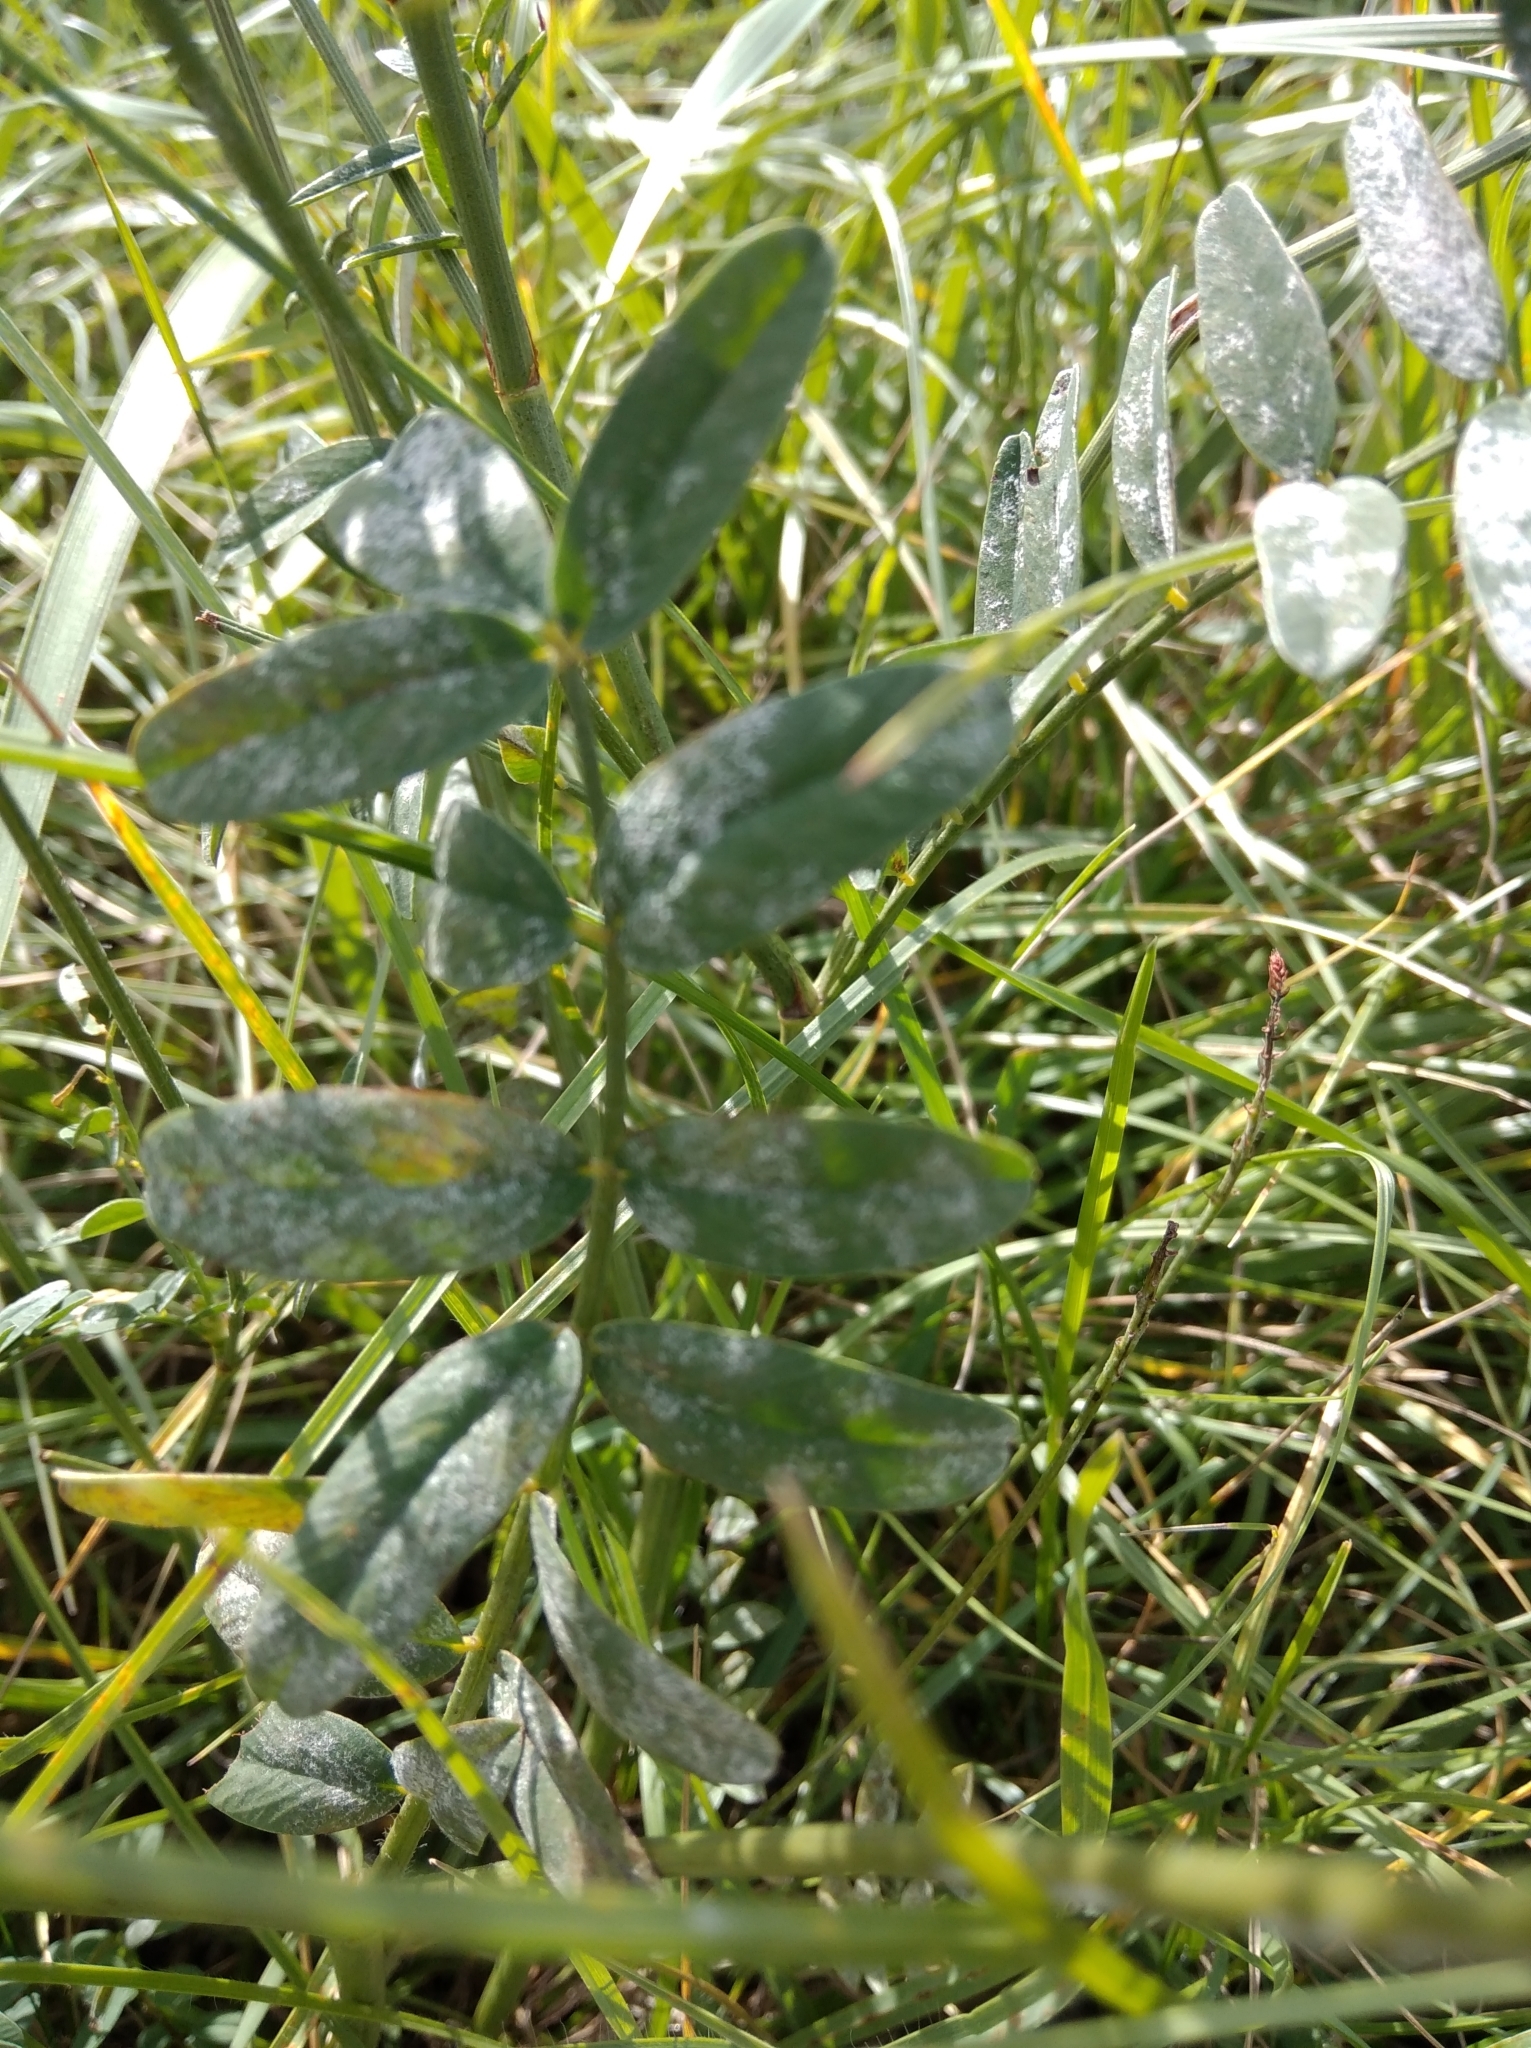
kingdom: Plantae
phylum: Tracheophyta
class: Magnoliopsida
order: Fabales
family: Fabaceae
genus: Onobrychis
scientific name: Onobrychis viciifolia
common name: Sainfoin
